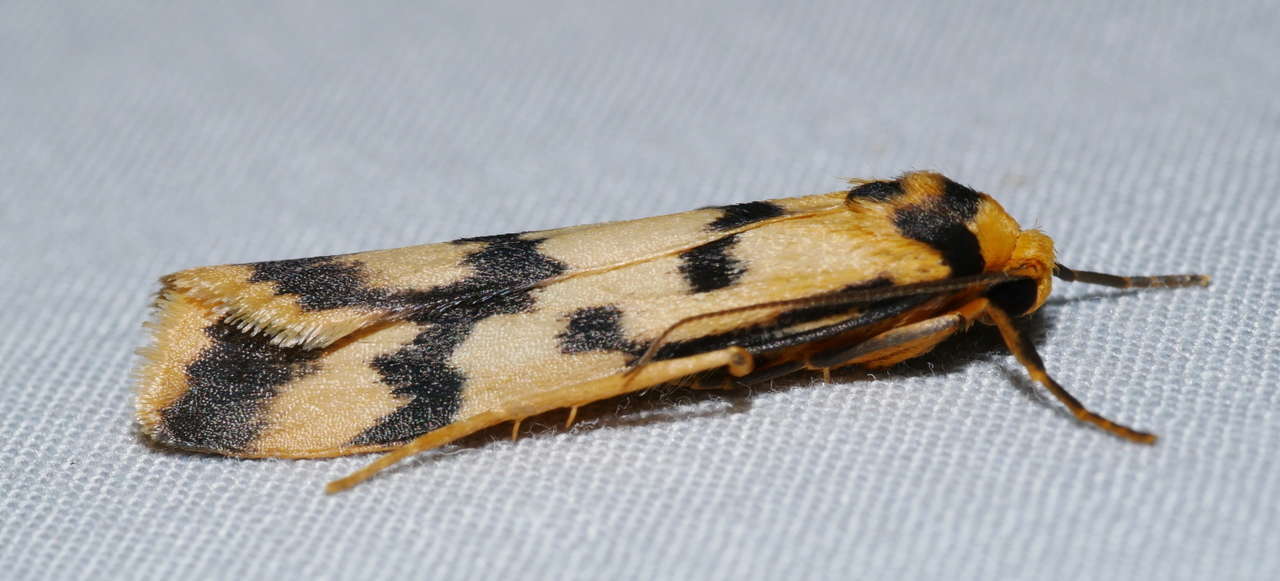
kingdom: Animalia
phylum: Arthropoda
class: Insecta
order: Lepidoptera
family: Erebidae
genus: Tigrioides
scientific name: Tigrioides alterna
